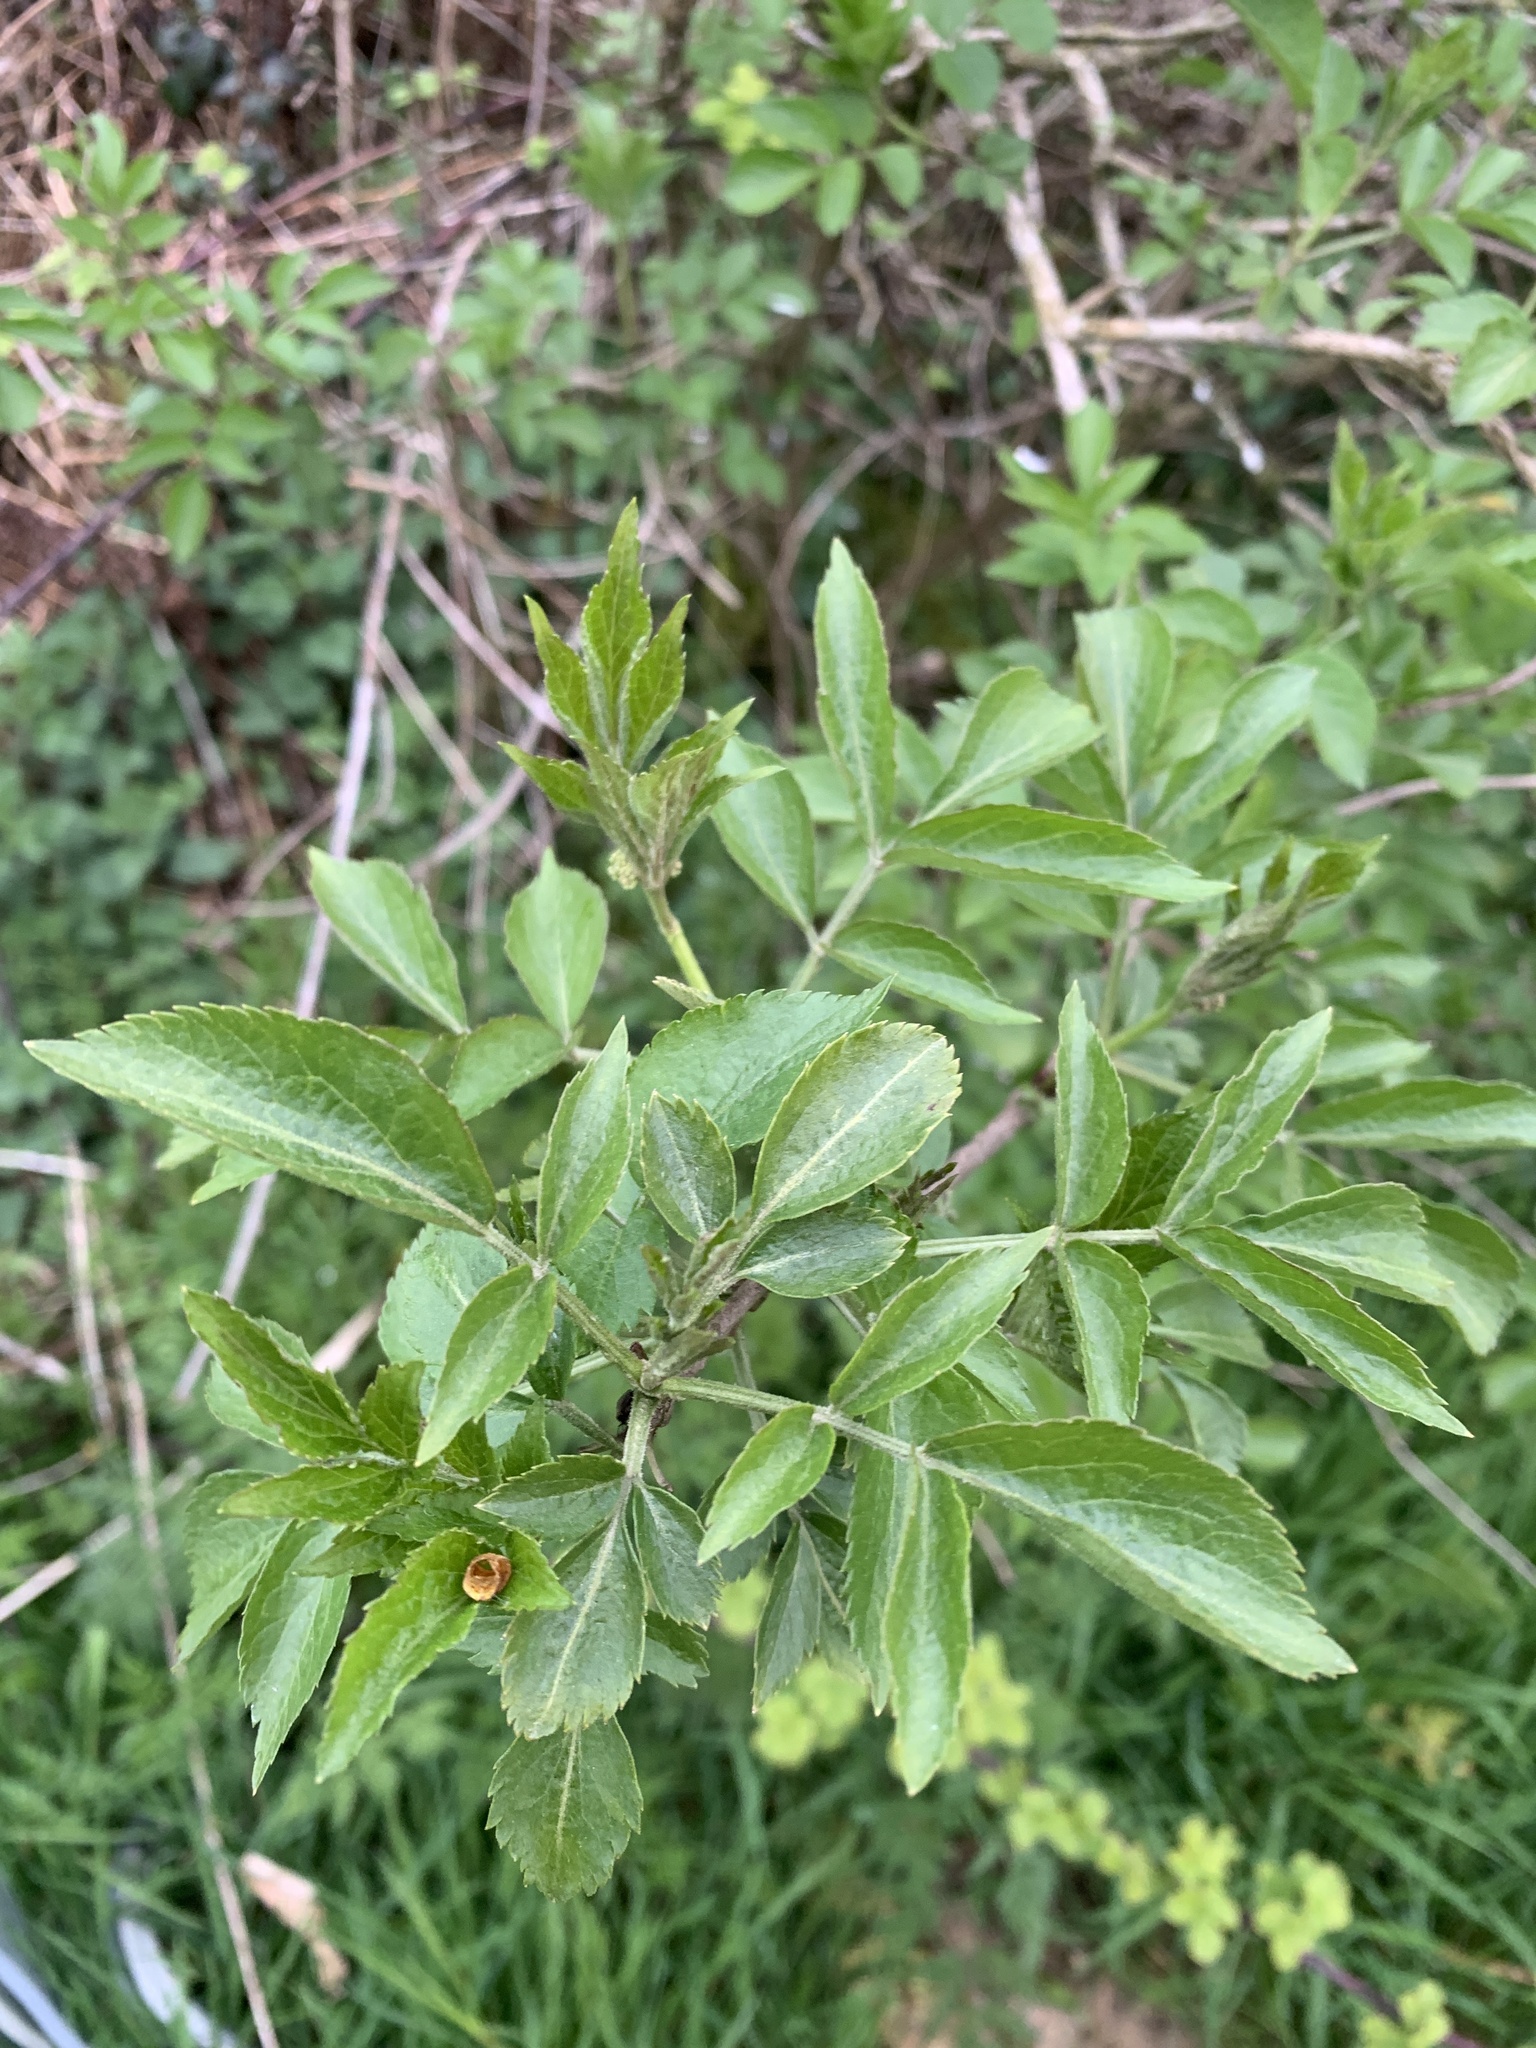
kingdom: Plantae
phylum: Tracheophyta
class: Magnoliopsida
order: Dipsacales
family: Viburnaceae
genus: Sambucus
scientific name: Sambucus nigra
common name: Elder
